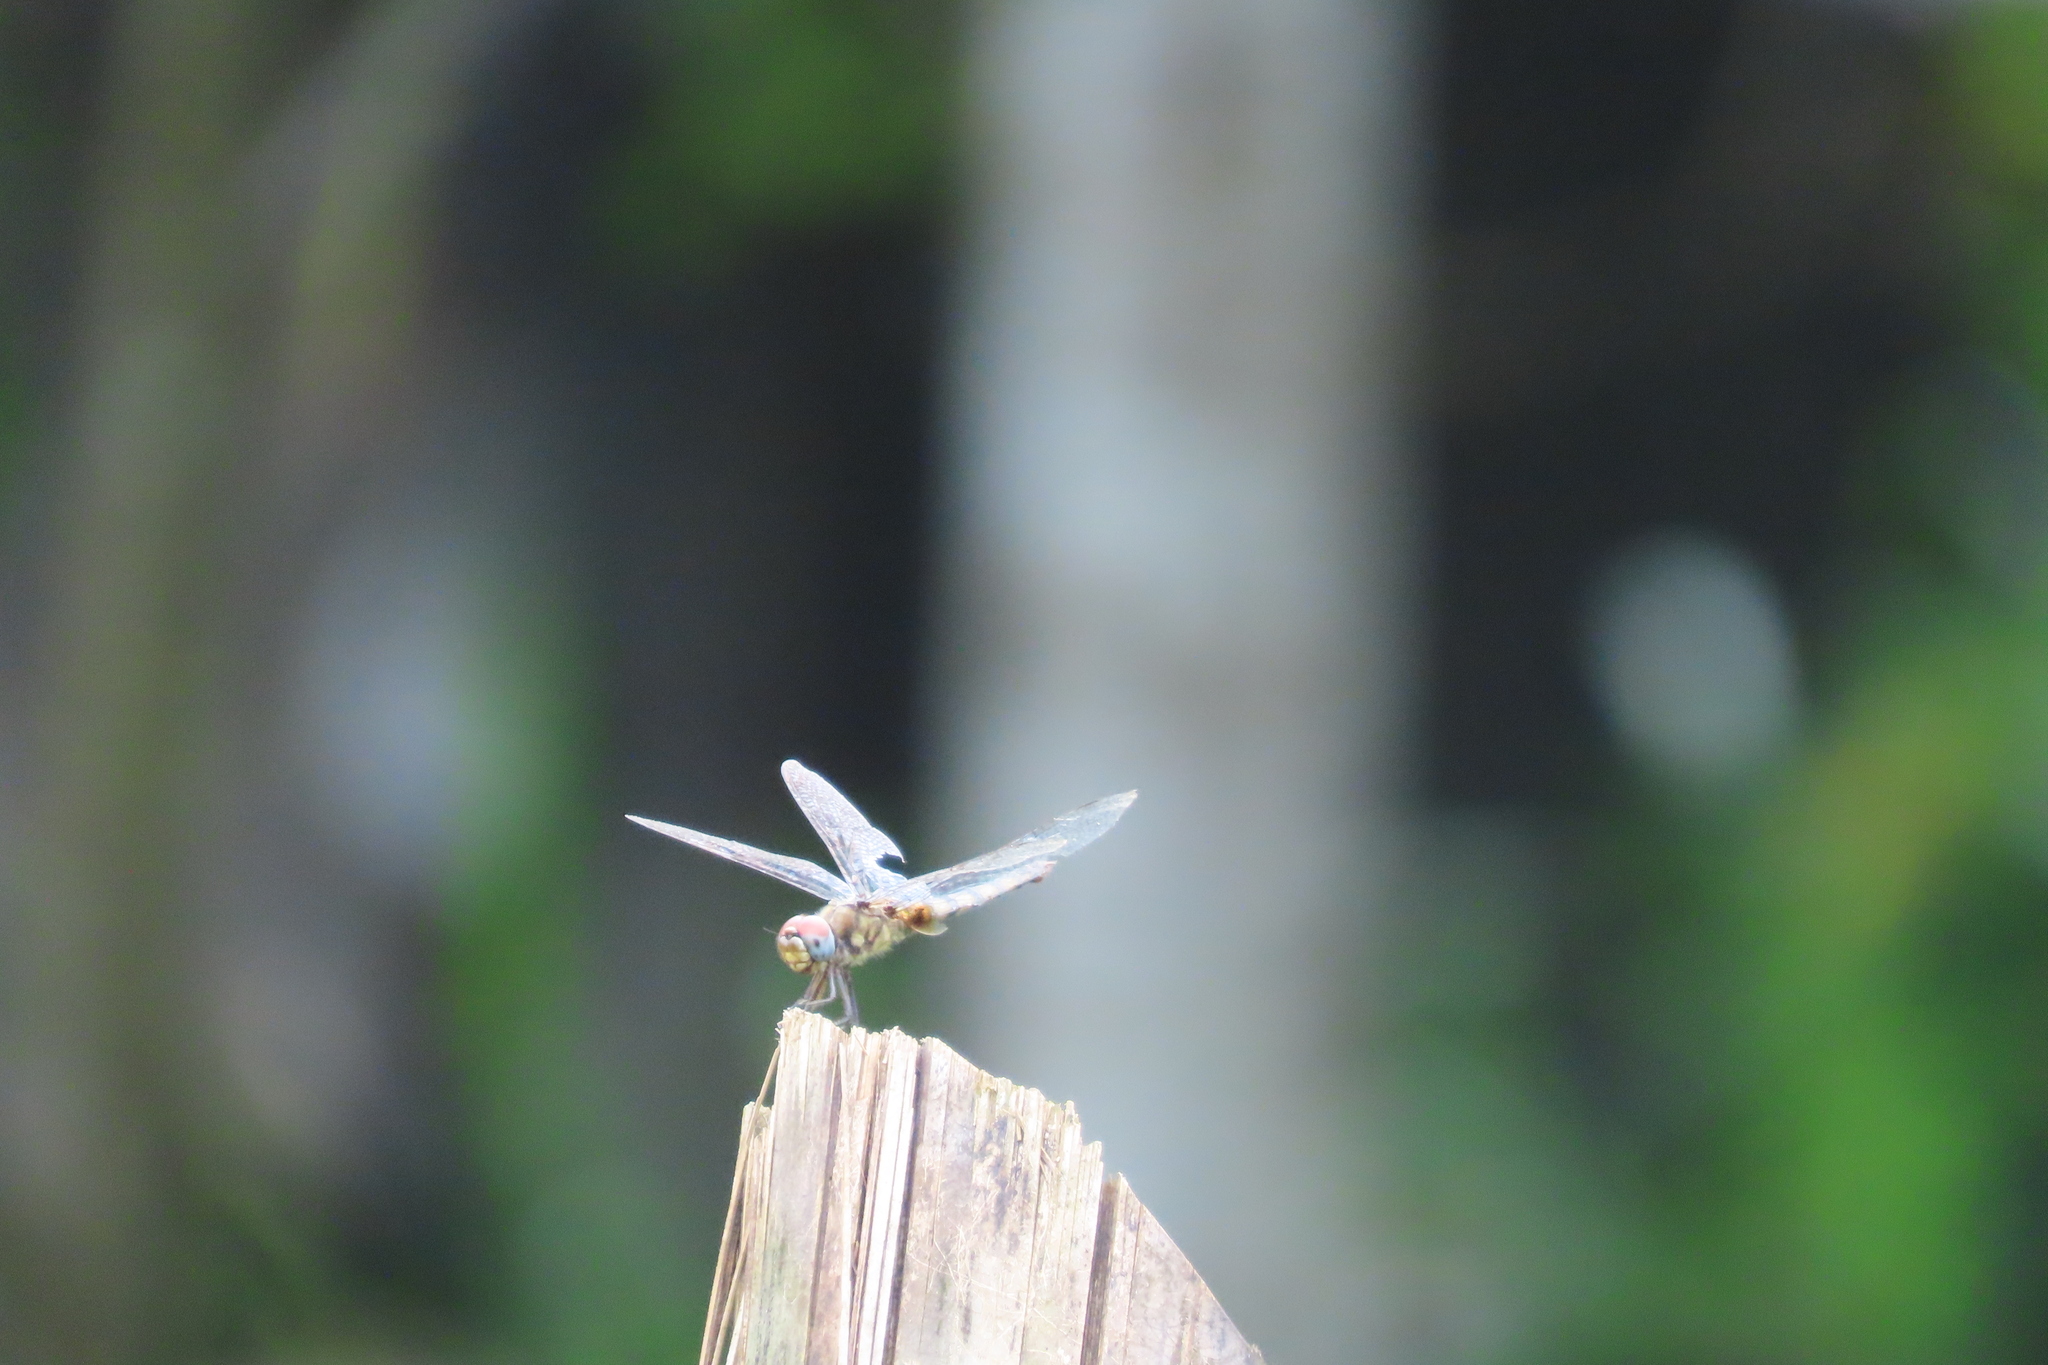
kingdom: Animalia
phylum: Arthropoda
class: Insecta
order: Odonata
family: Libellulidae
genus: Urothemis
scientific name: Urothemis signata
